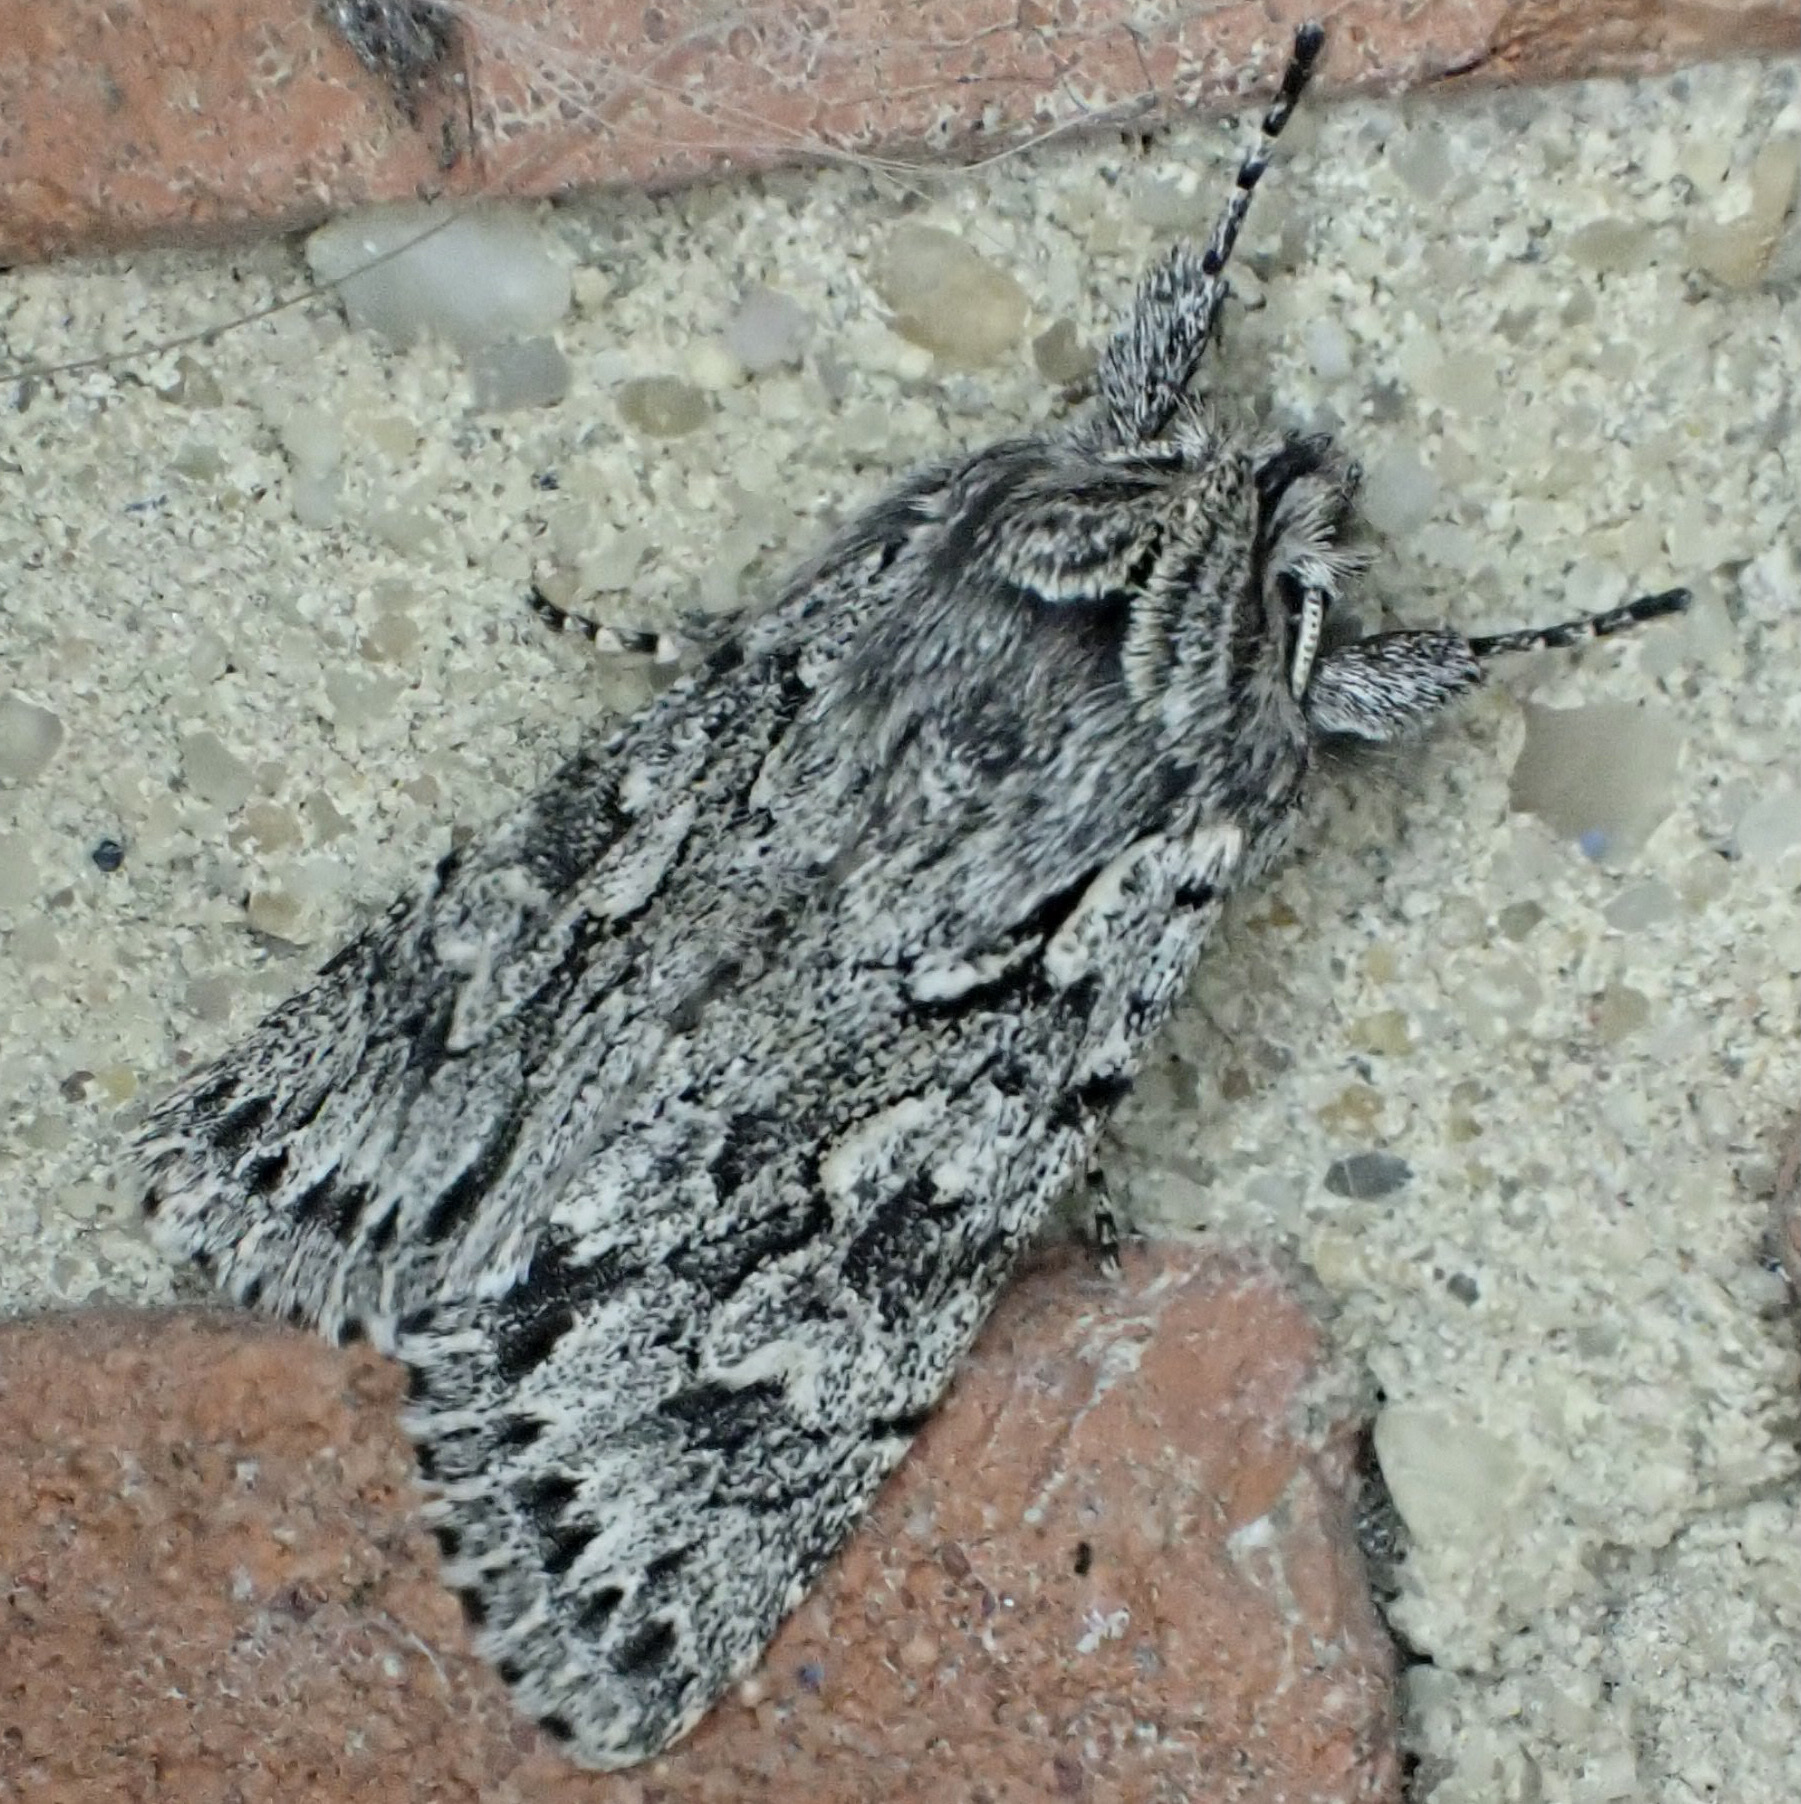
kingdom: Animalia
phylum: Arthropoda
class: Insecta
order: Lepidoptera
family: Noctuidae
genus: Xylocampa
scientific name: Xylocampa areola
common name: Early grey
